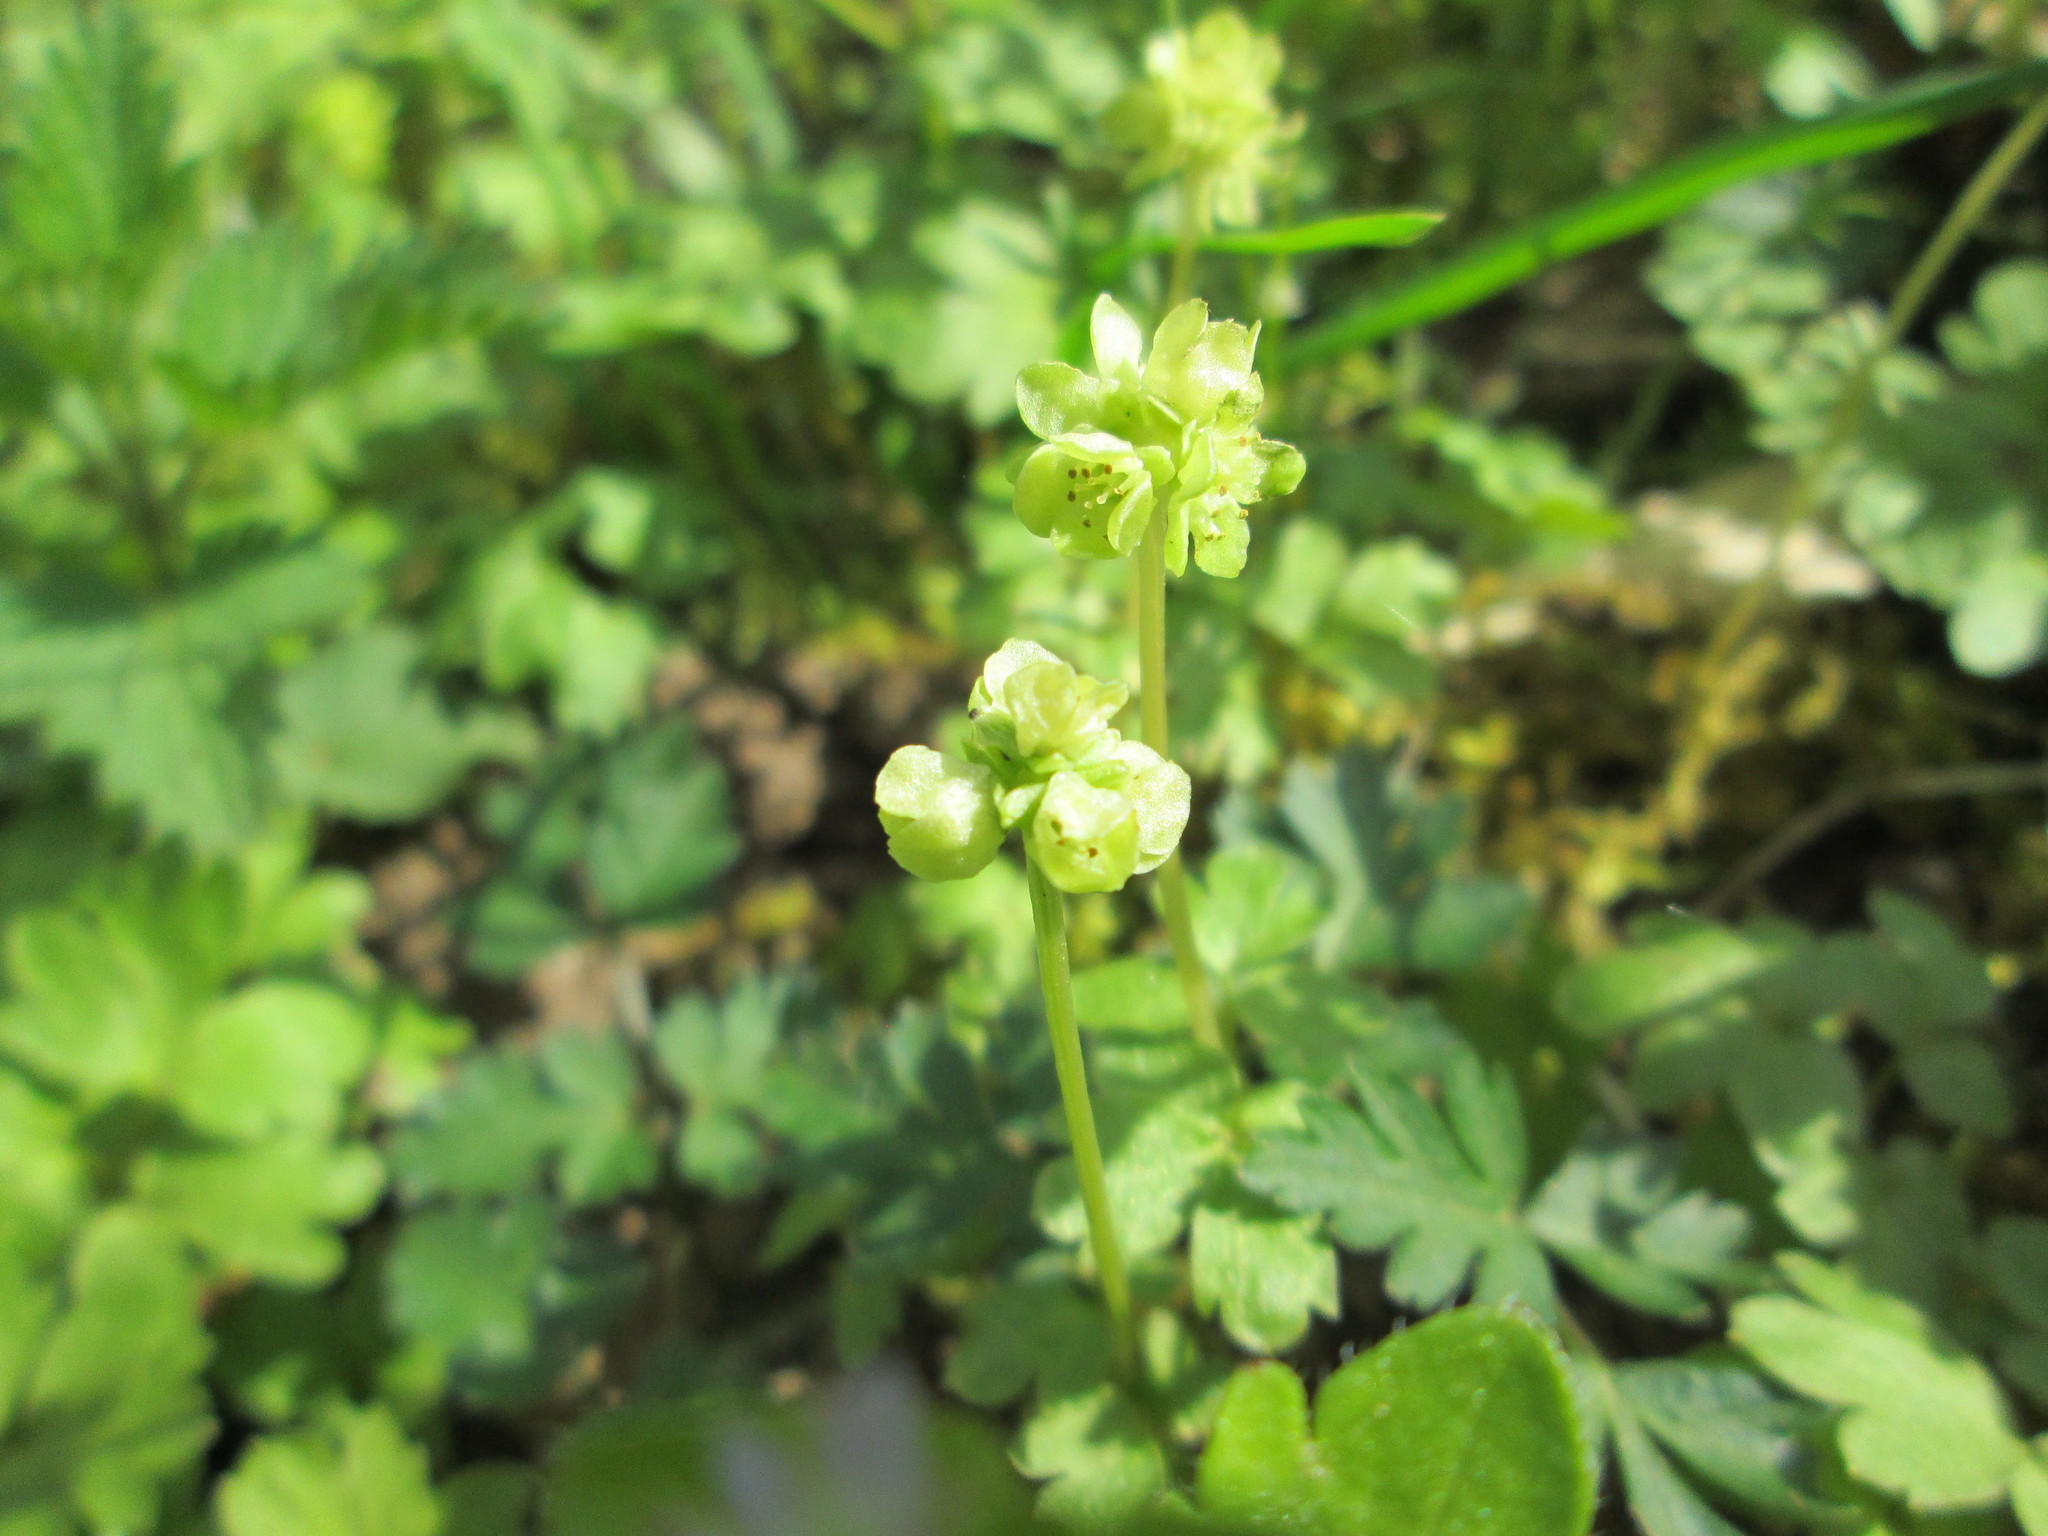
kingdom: Plantae
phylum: Tracheophyta
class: Magnoliopsida
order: Dipsacales
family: Viburnaceae
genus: Adoxa
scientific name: Adoxa moschatellina
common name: Moschatel
